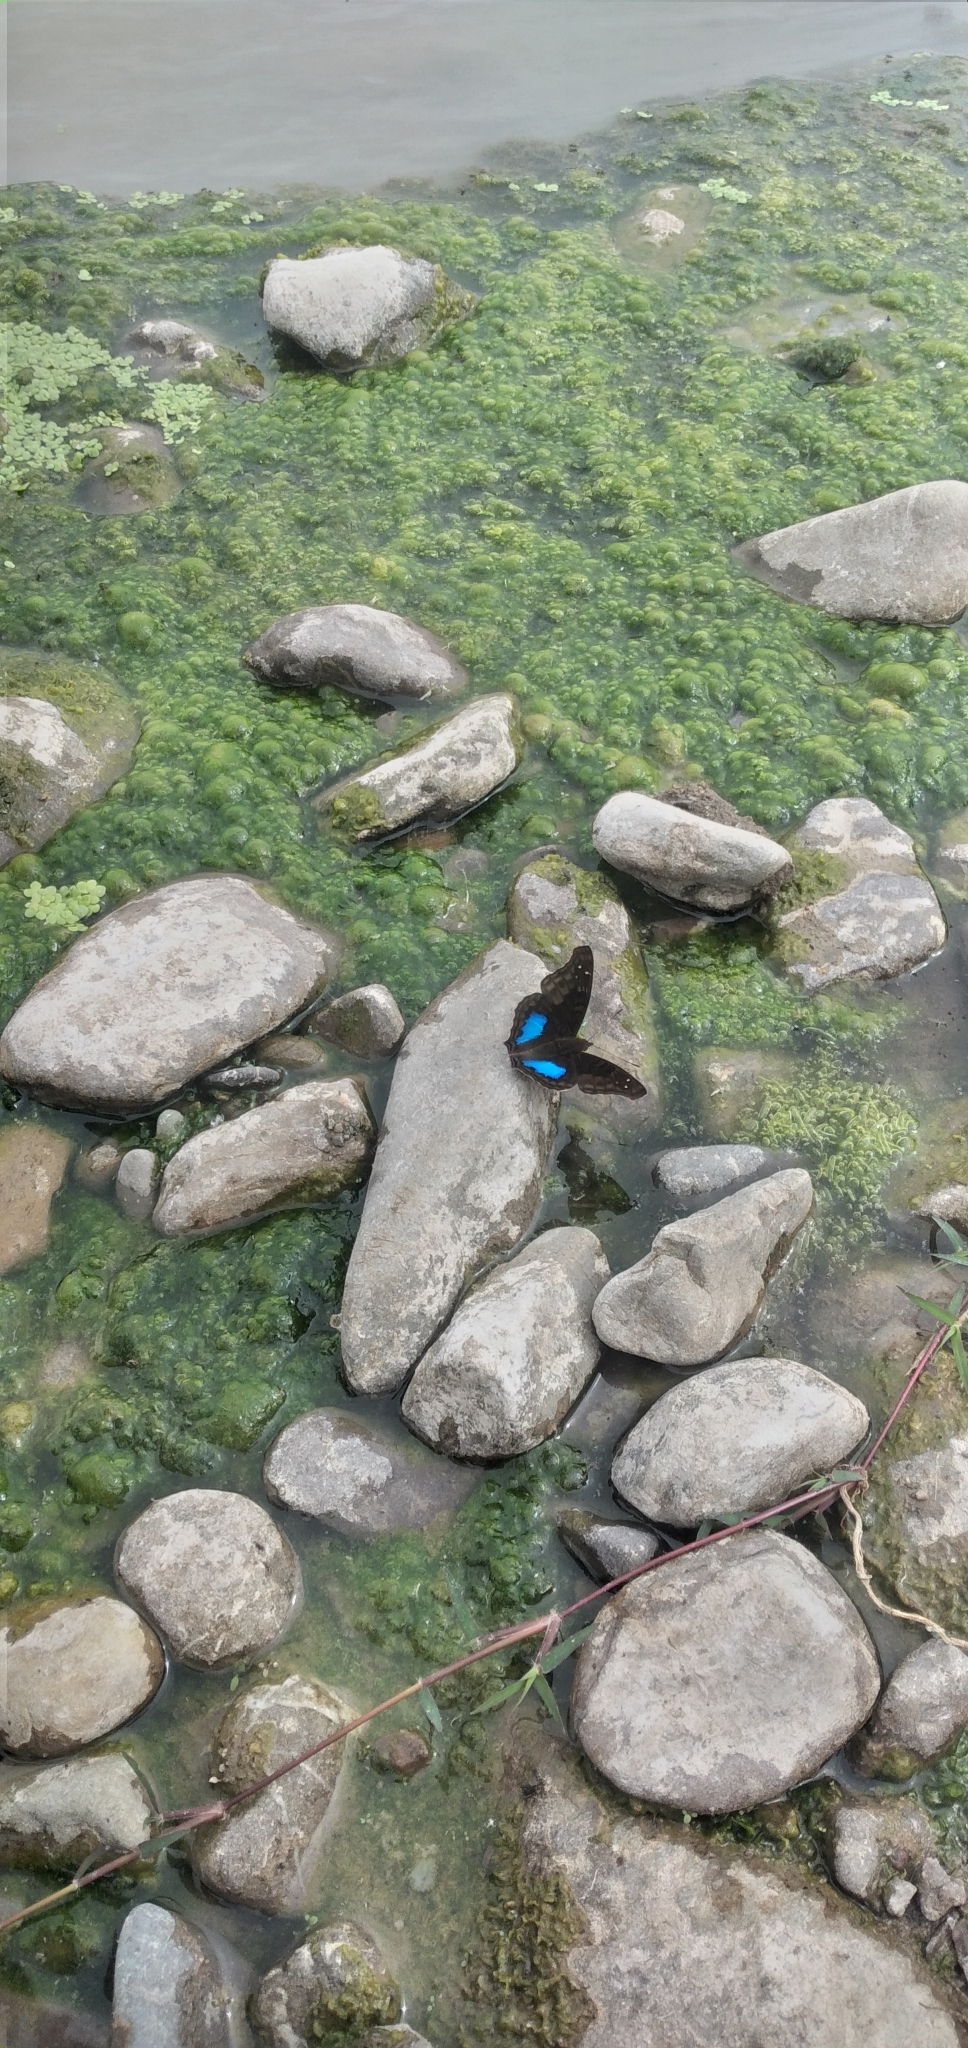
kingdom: Animalia
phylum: Arthropoda
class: Insecta
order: Lepidoptera
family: Nymphalidae
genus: Doxocopa
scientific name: Doxocopa cyane
